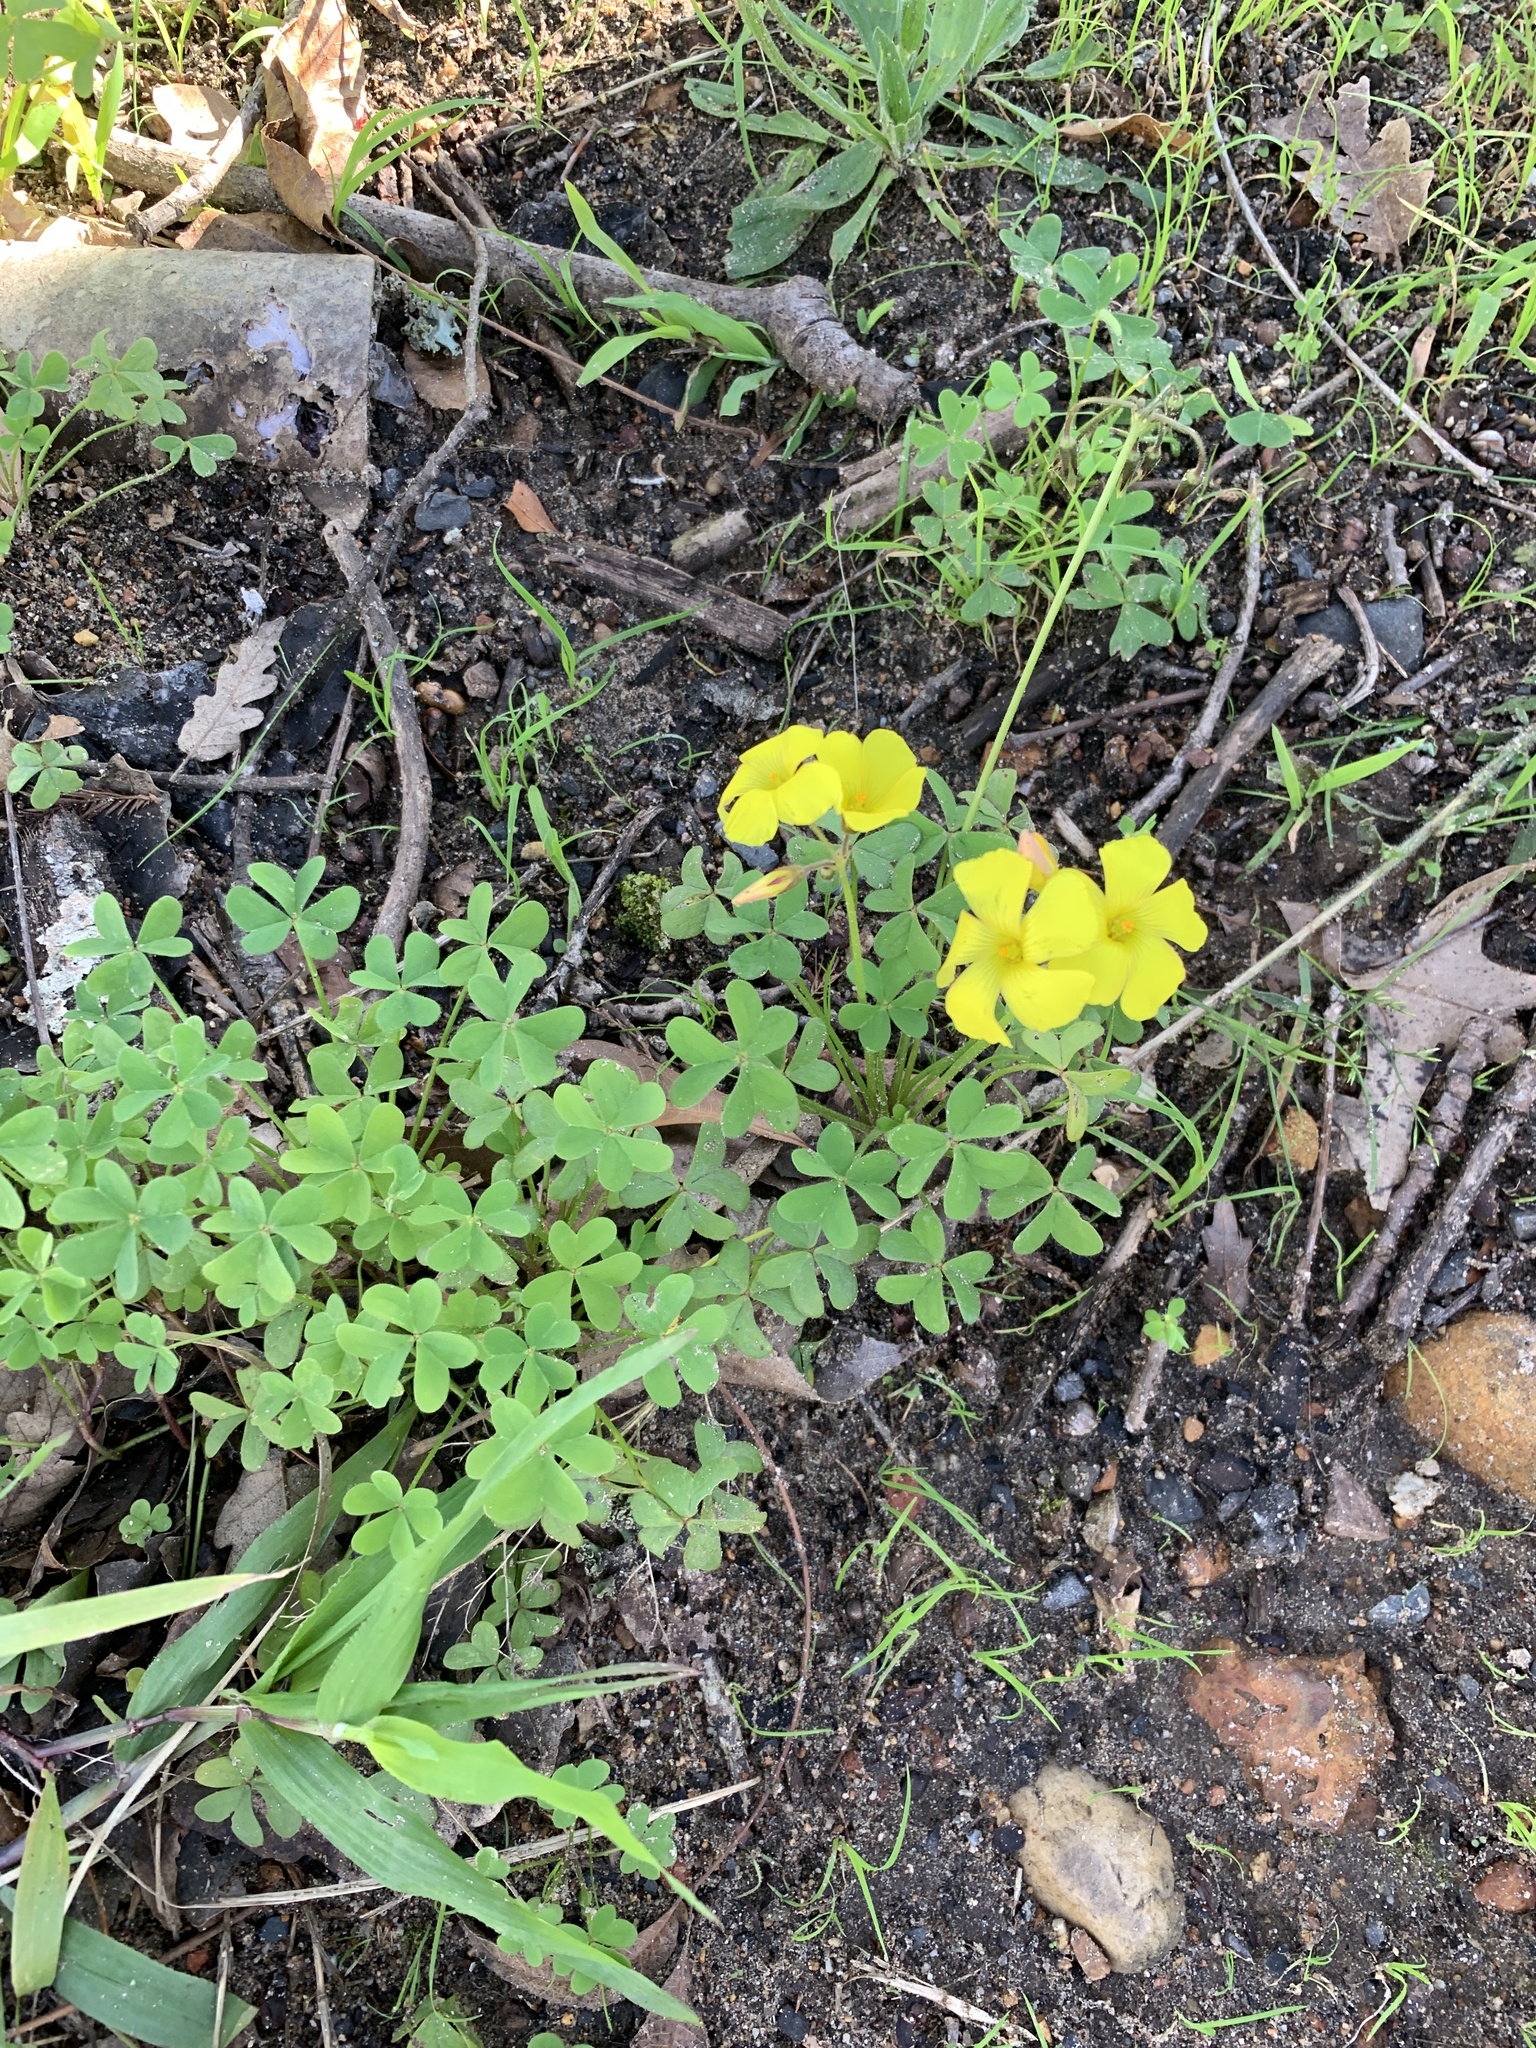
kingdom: Plantae
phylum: Tracheophyta
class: Magnoliopsida
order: Oxalidales
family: Oxalidaceae
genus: Oxalis
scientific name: Oxalis pes-caprae
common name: Bermuda-buttercup
